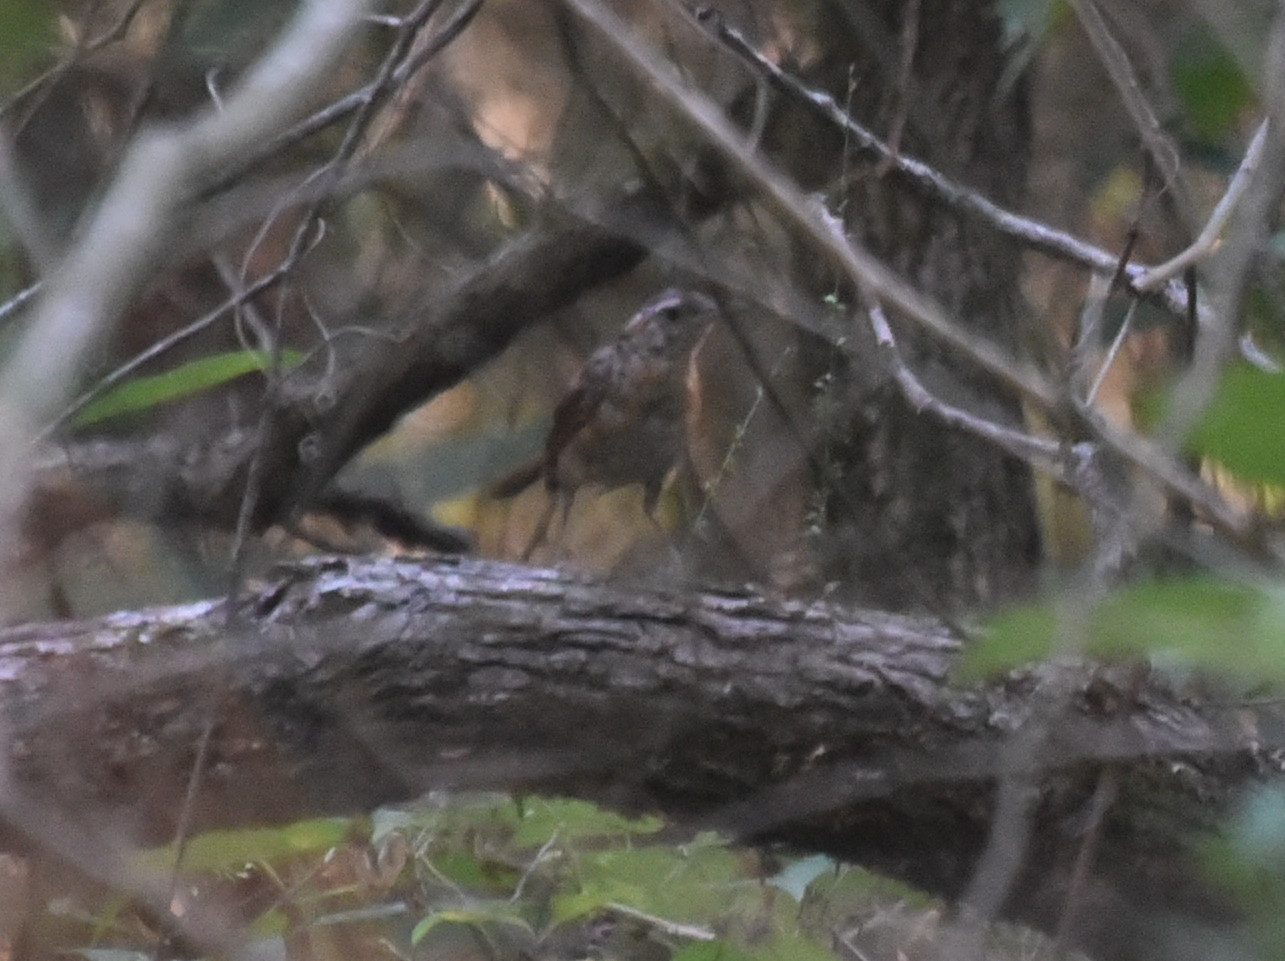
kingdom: Animalia
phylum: Chordata
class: Aves
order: Passeriformes
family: Troglodytidae
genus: Thryothorus
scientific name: Thryothorus ludovicianus
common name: Carolina wren
